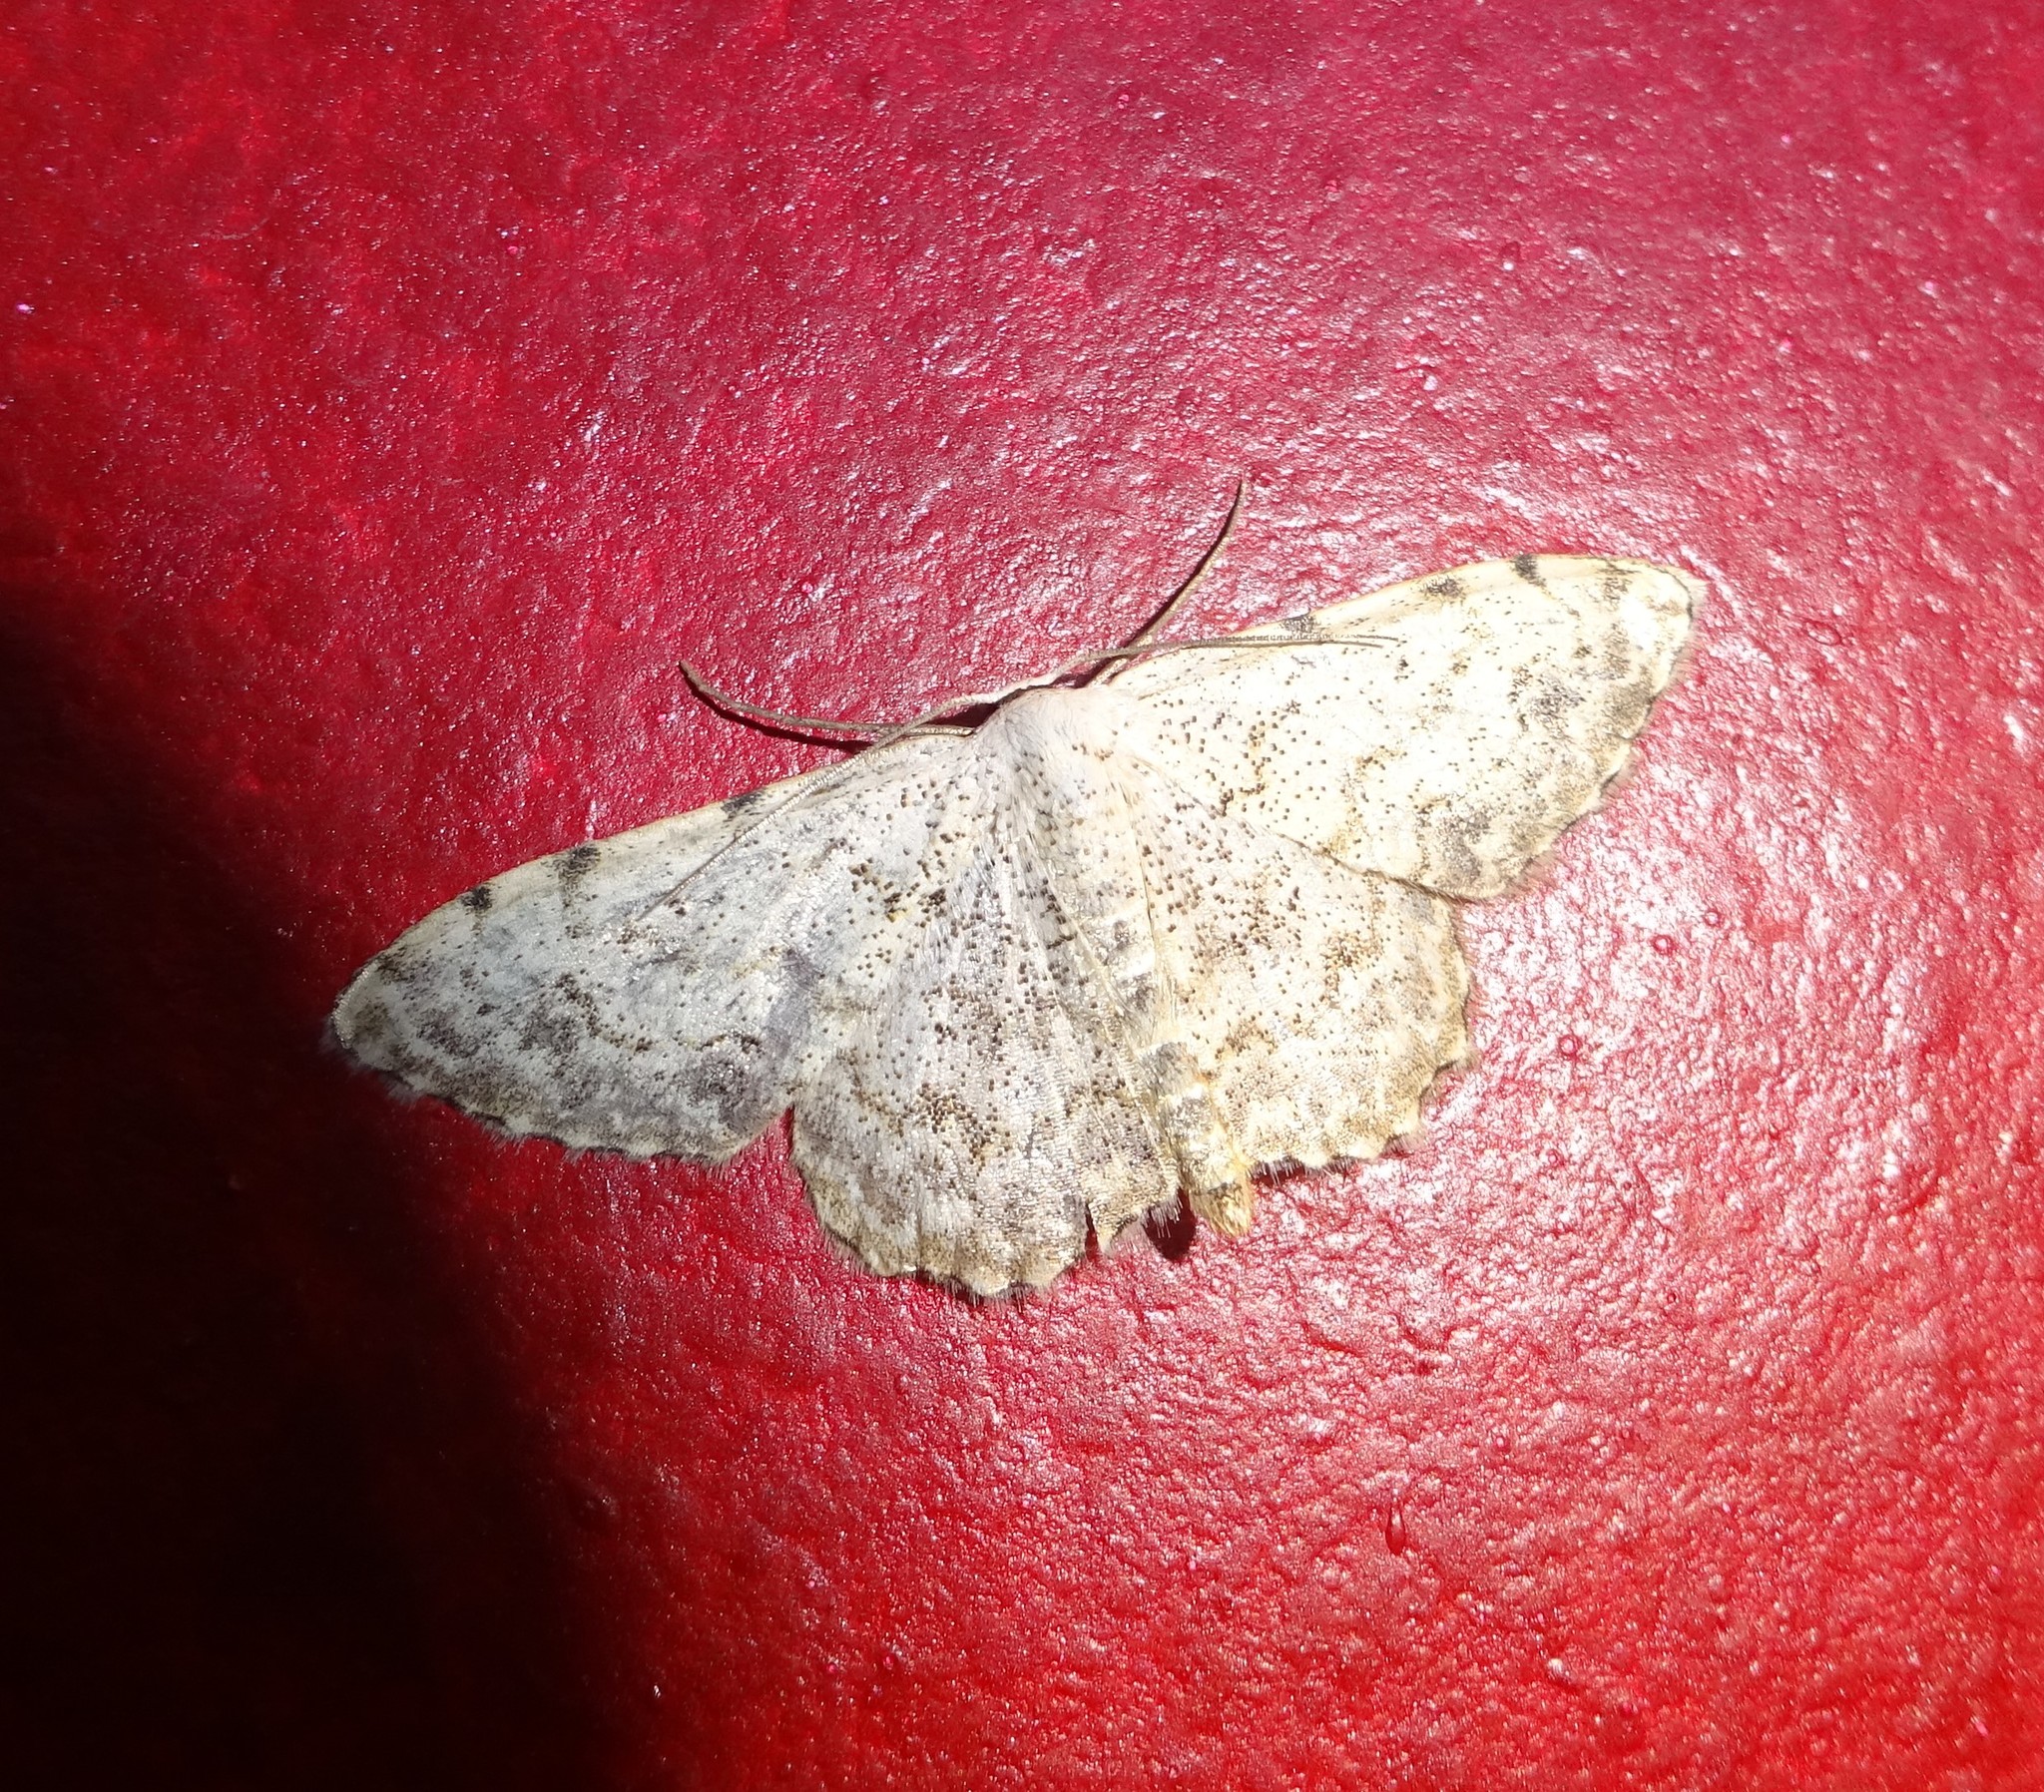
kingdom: Animalia
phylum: Arthropoda
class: Insecta
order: Lepidoptera
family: Geometridae
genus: Scopula
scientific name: Scopula submutata
